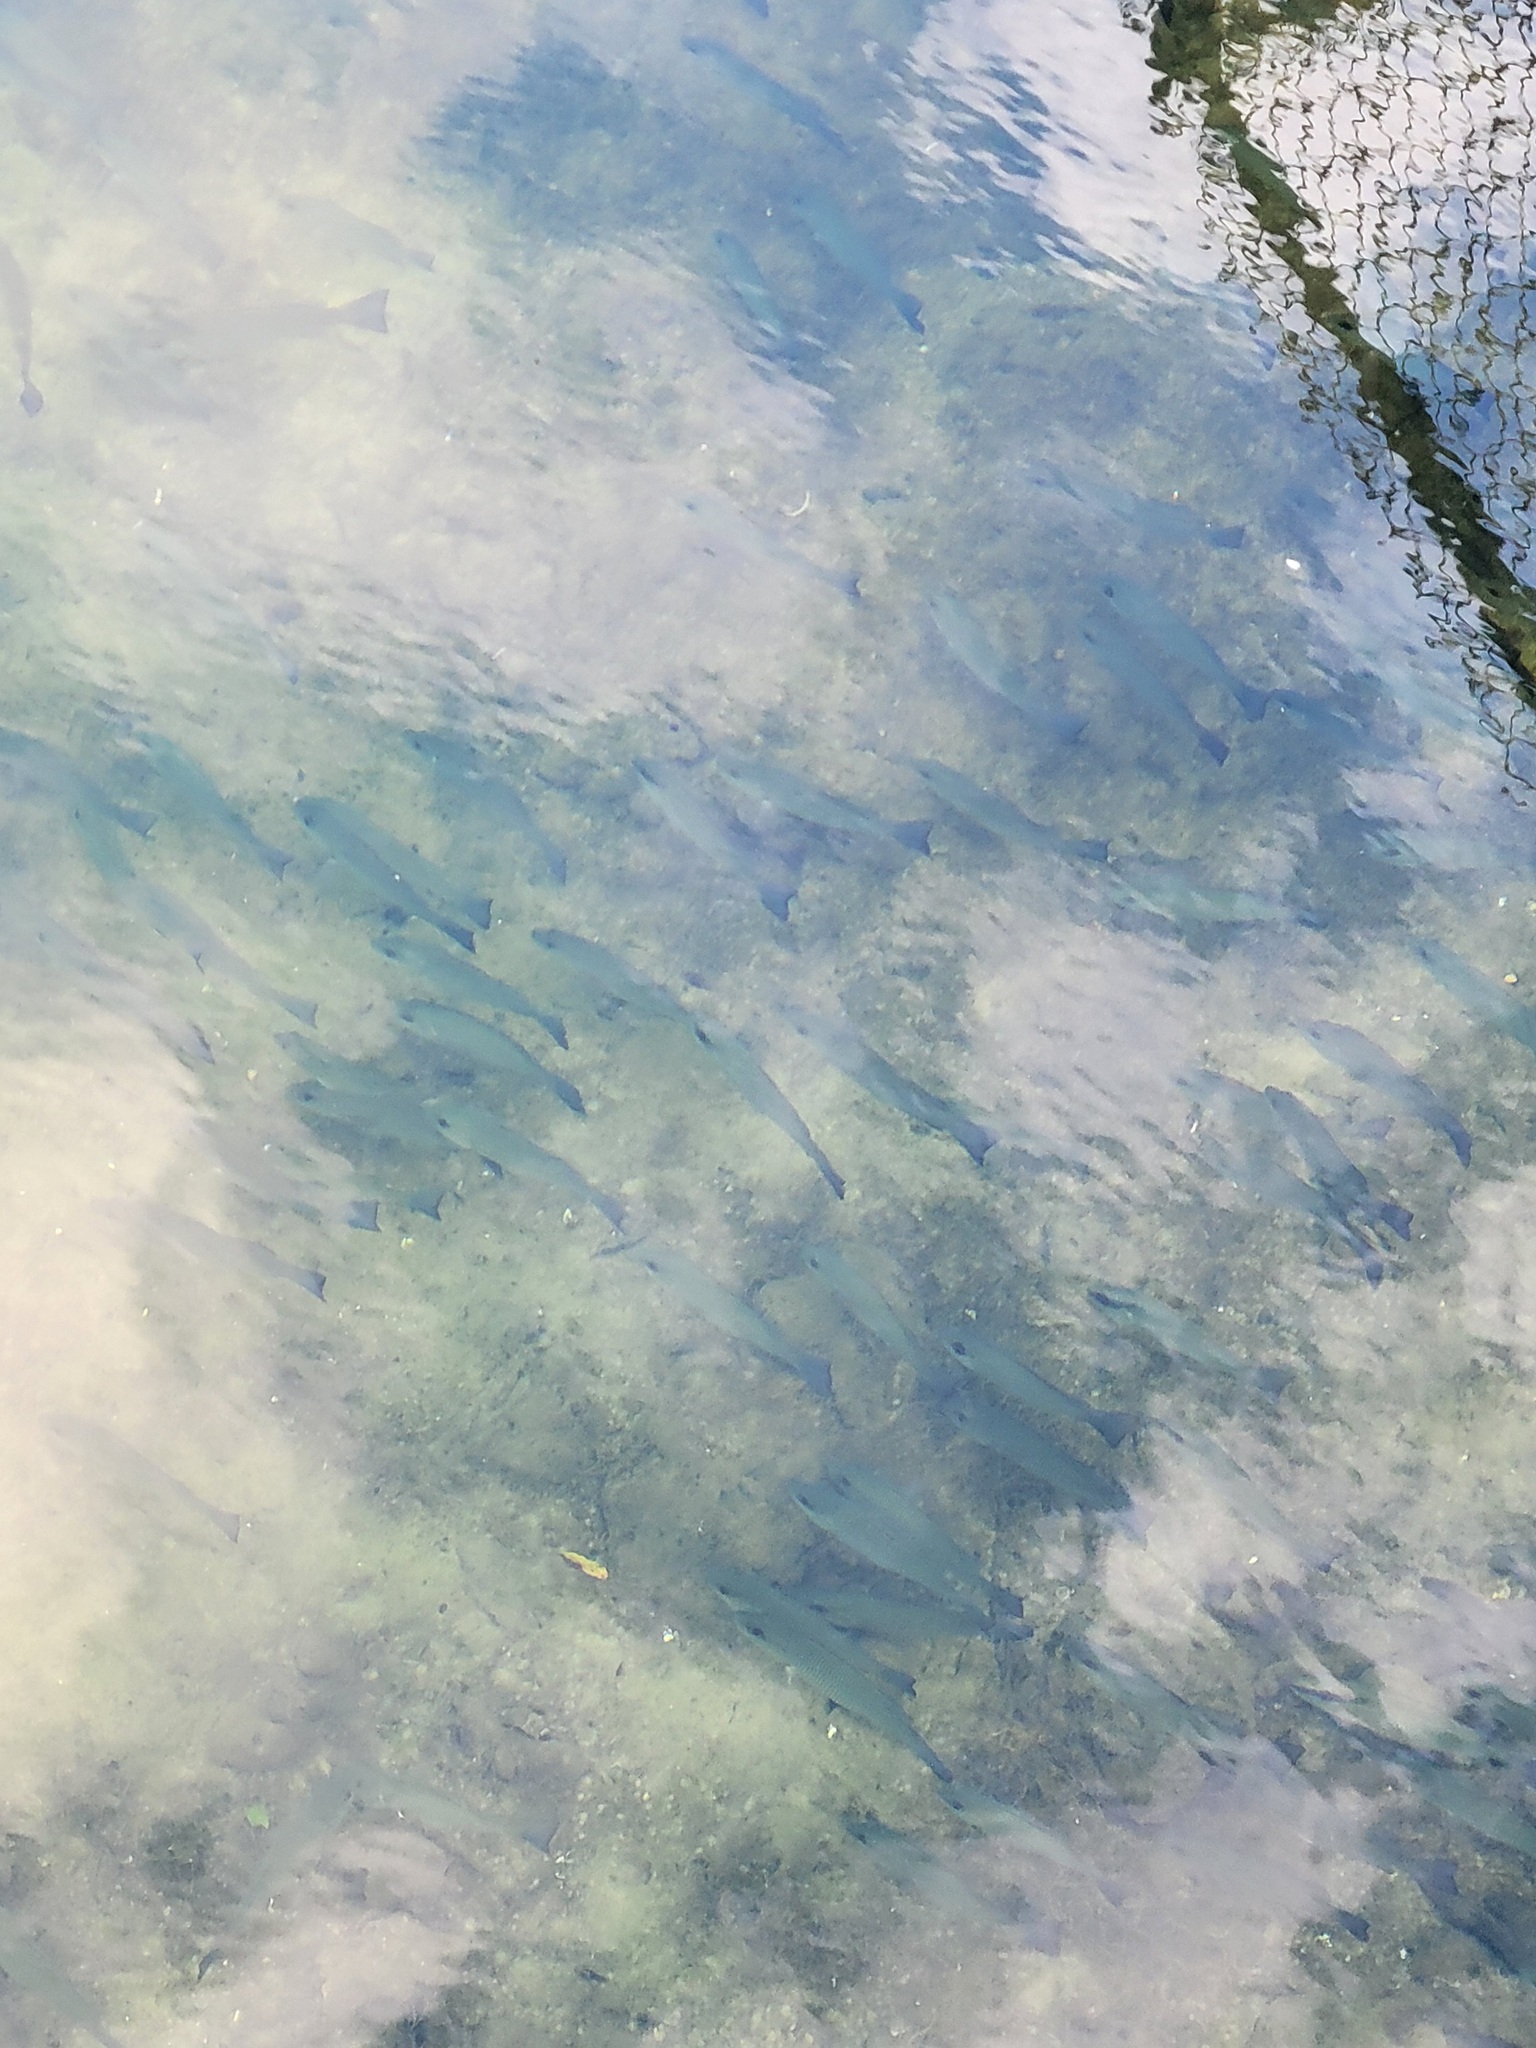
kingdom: Animalia
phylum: Chordata
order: Perciformes
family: Lutjanidae
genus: Lutjanus
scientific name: Lutjanus griseus
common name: Gray snapper
